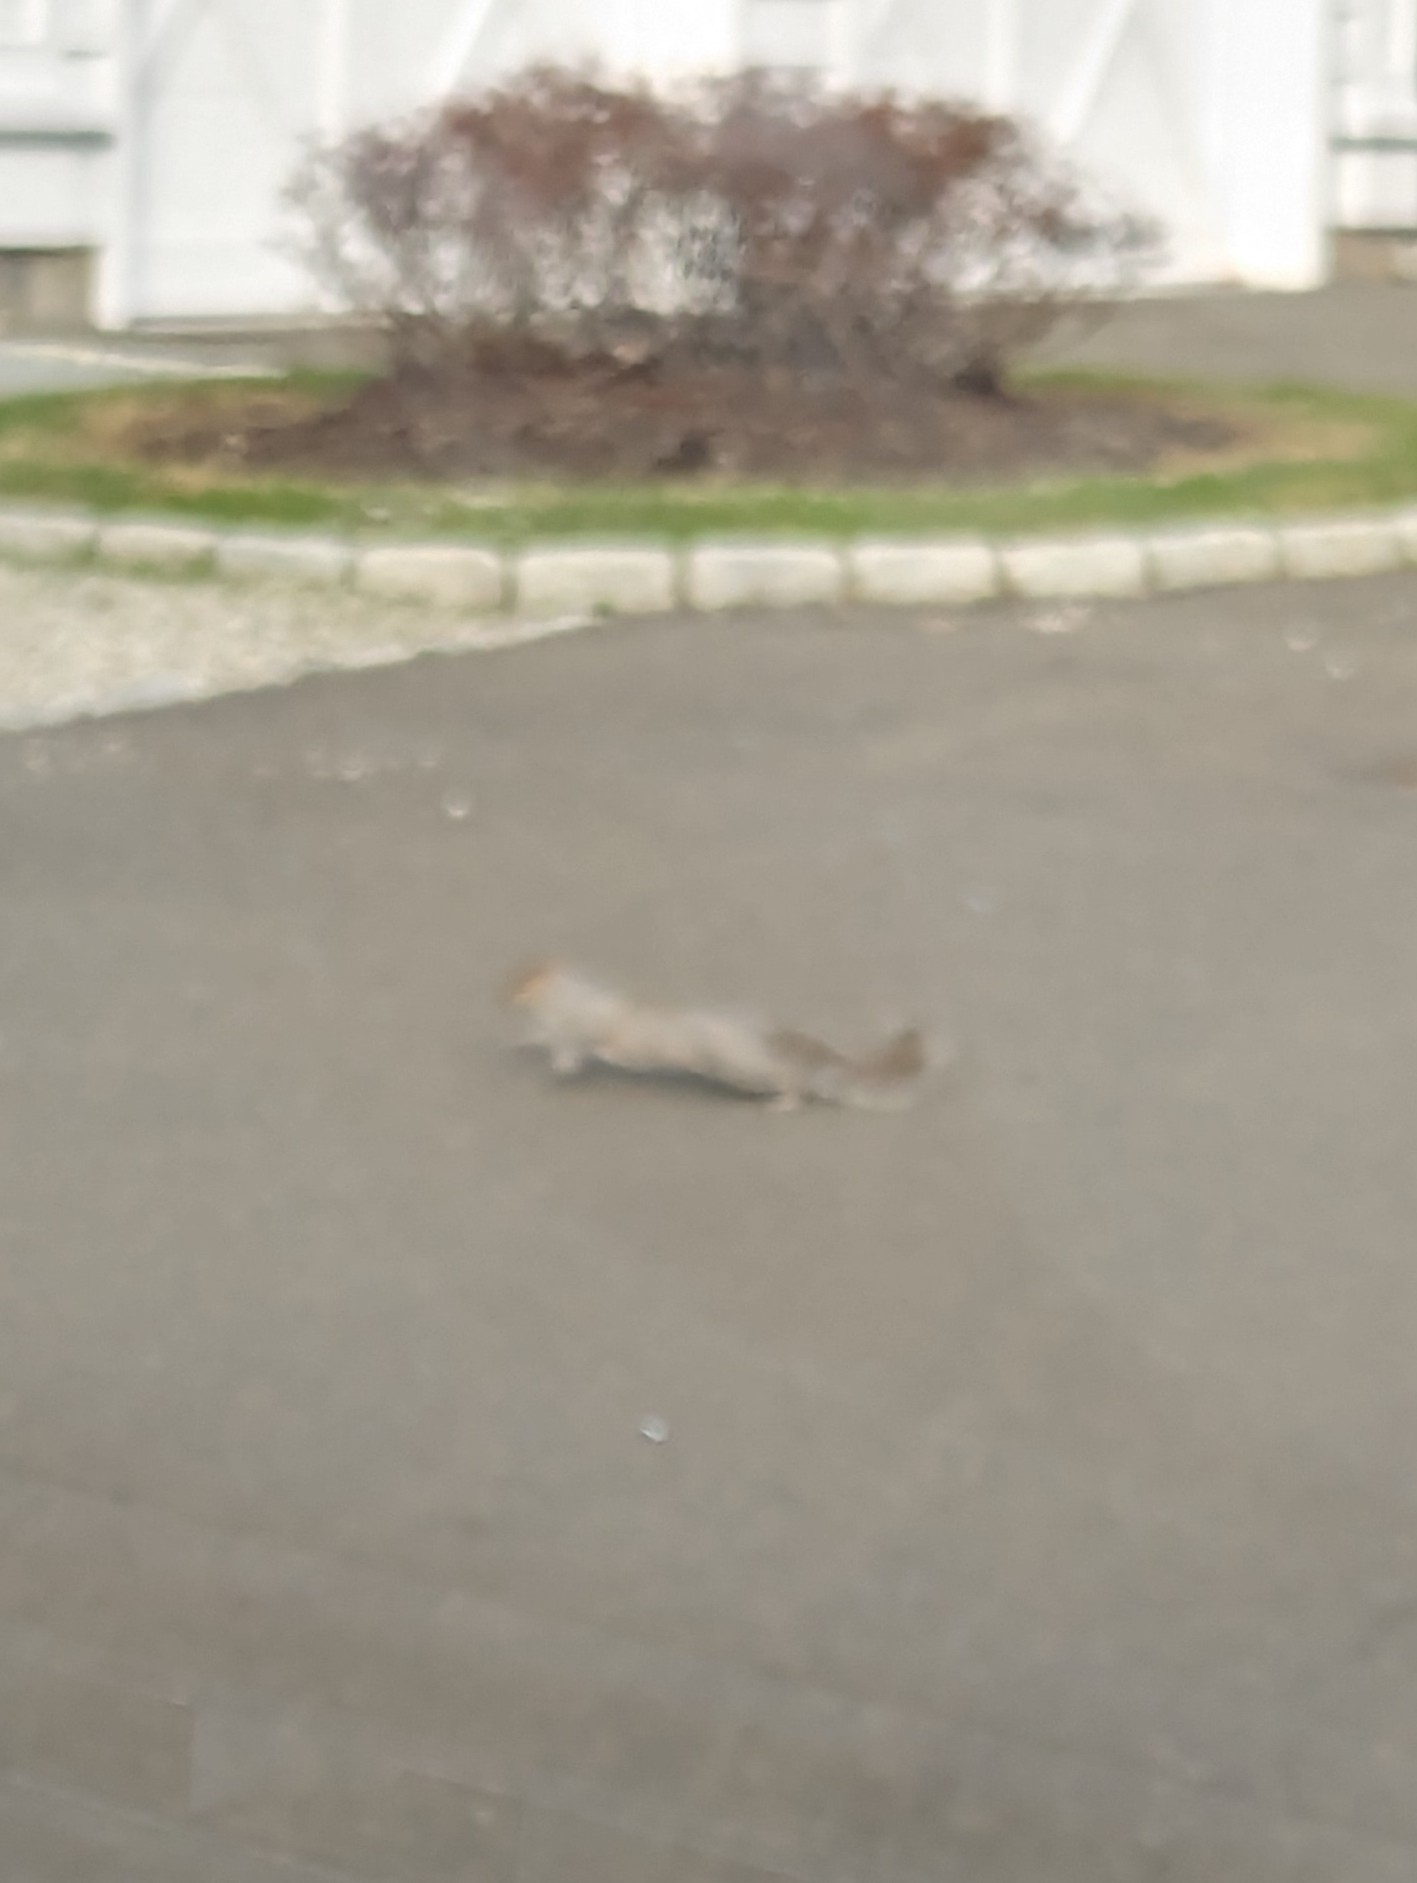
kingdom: Animalia
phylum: Chordata
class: Mammalia
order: Rodentia
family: Sciuridae
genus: Sciurus
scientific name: Sciurus carolinensis
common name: Eastern gray squirrel
